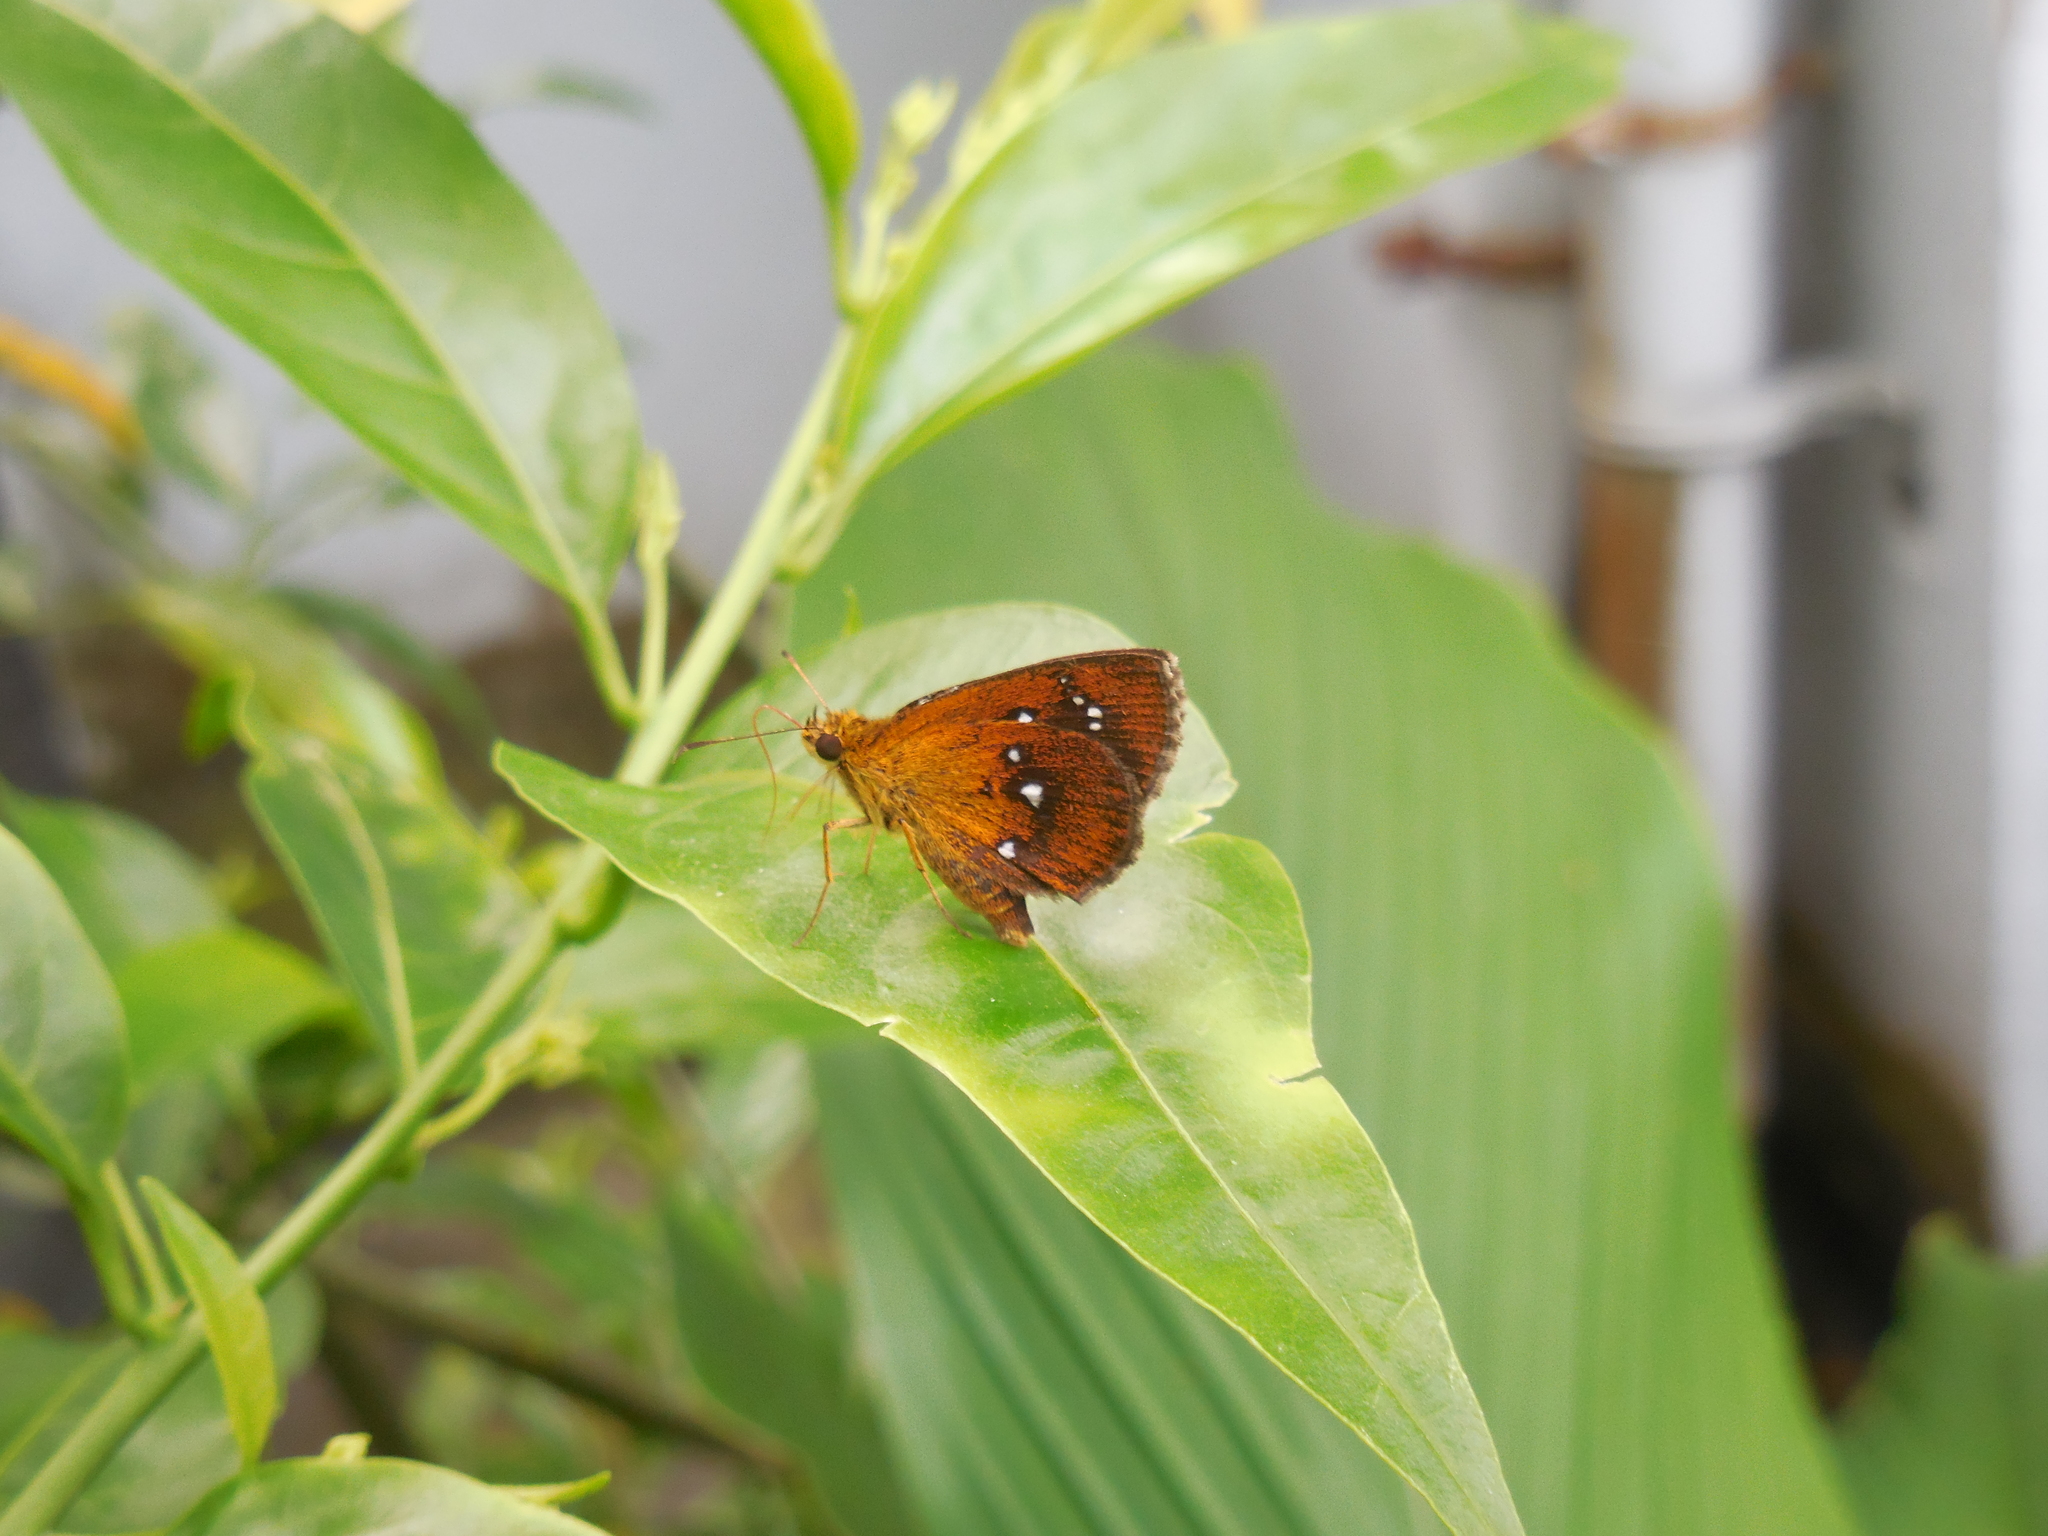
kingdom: Animalia
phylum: Arthropoda
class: Insecta
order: Lepidoptera
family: Hesperiidae
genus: Iambrix
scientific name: Iambrix salsala
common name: Chestnut bob
